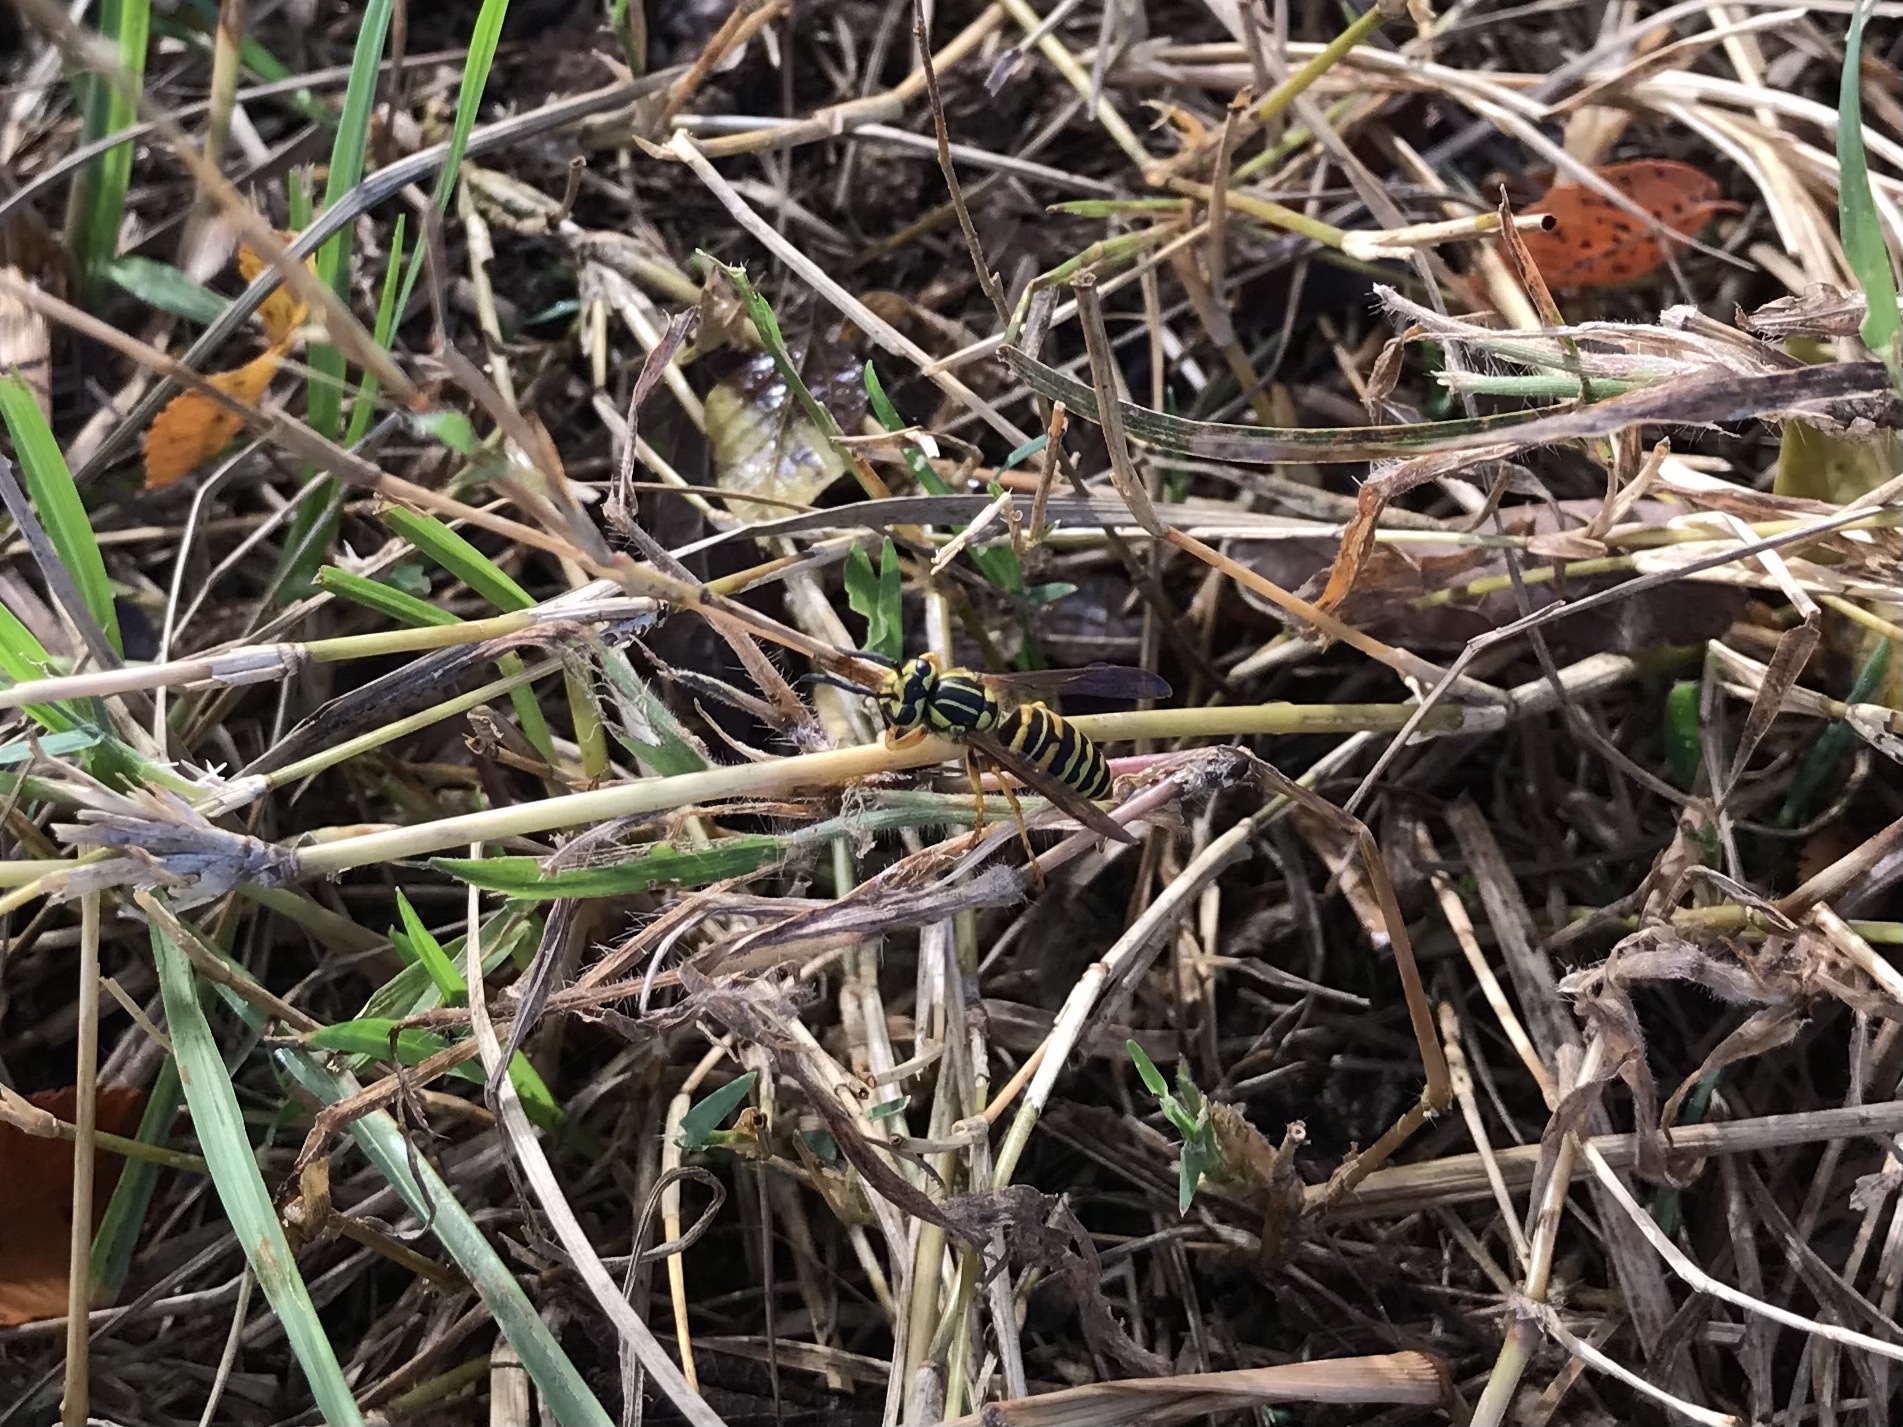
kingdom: Animalia
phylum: Arthropoda
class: Insecta
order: Hymenoptera
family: Vespidae
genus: Vespula
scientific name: Vespula squamosa
